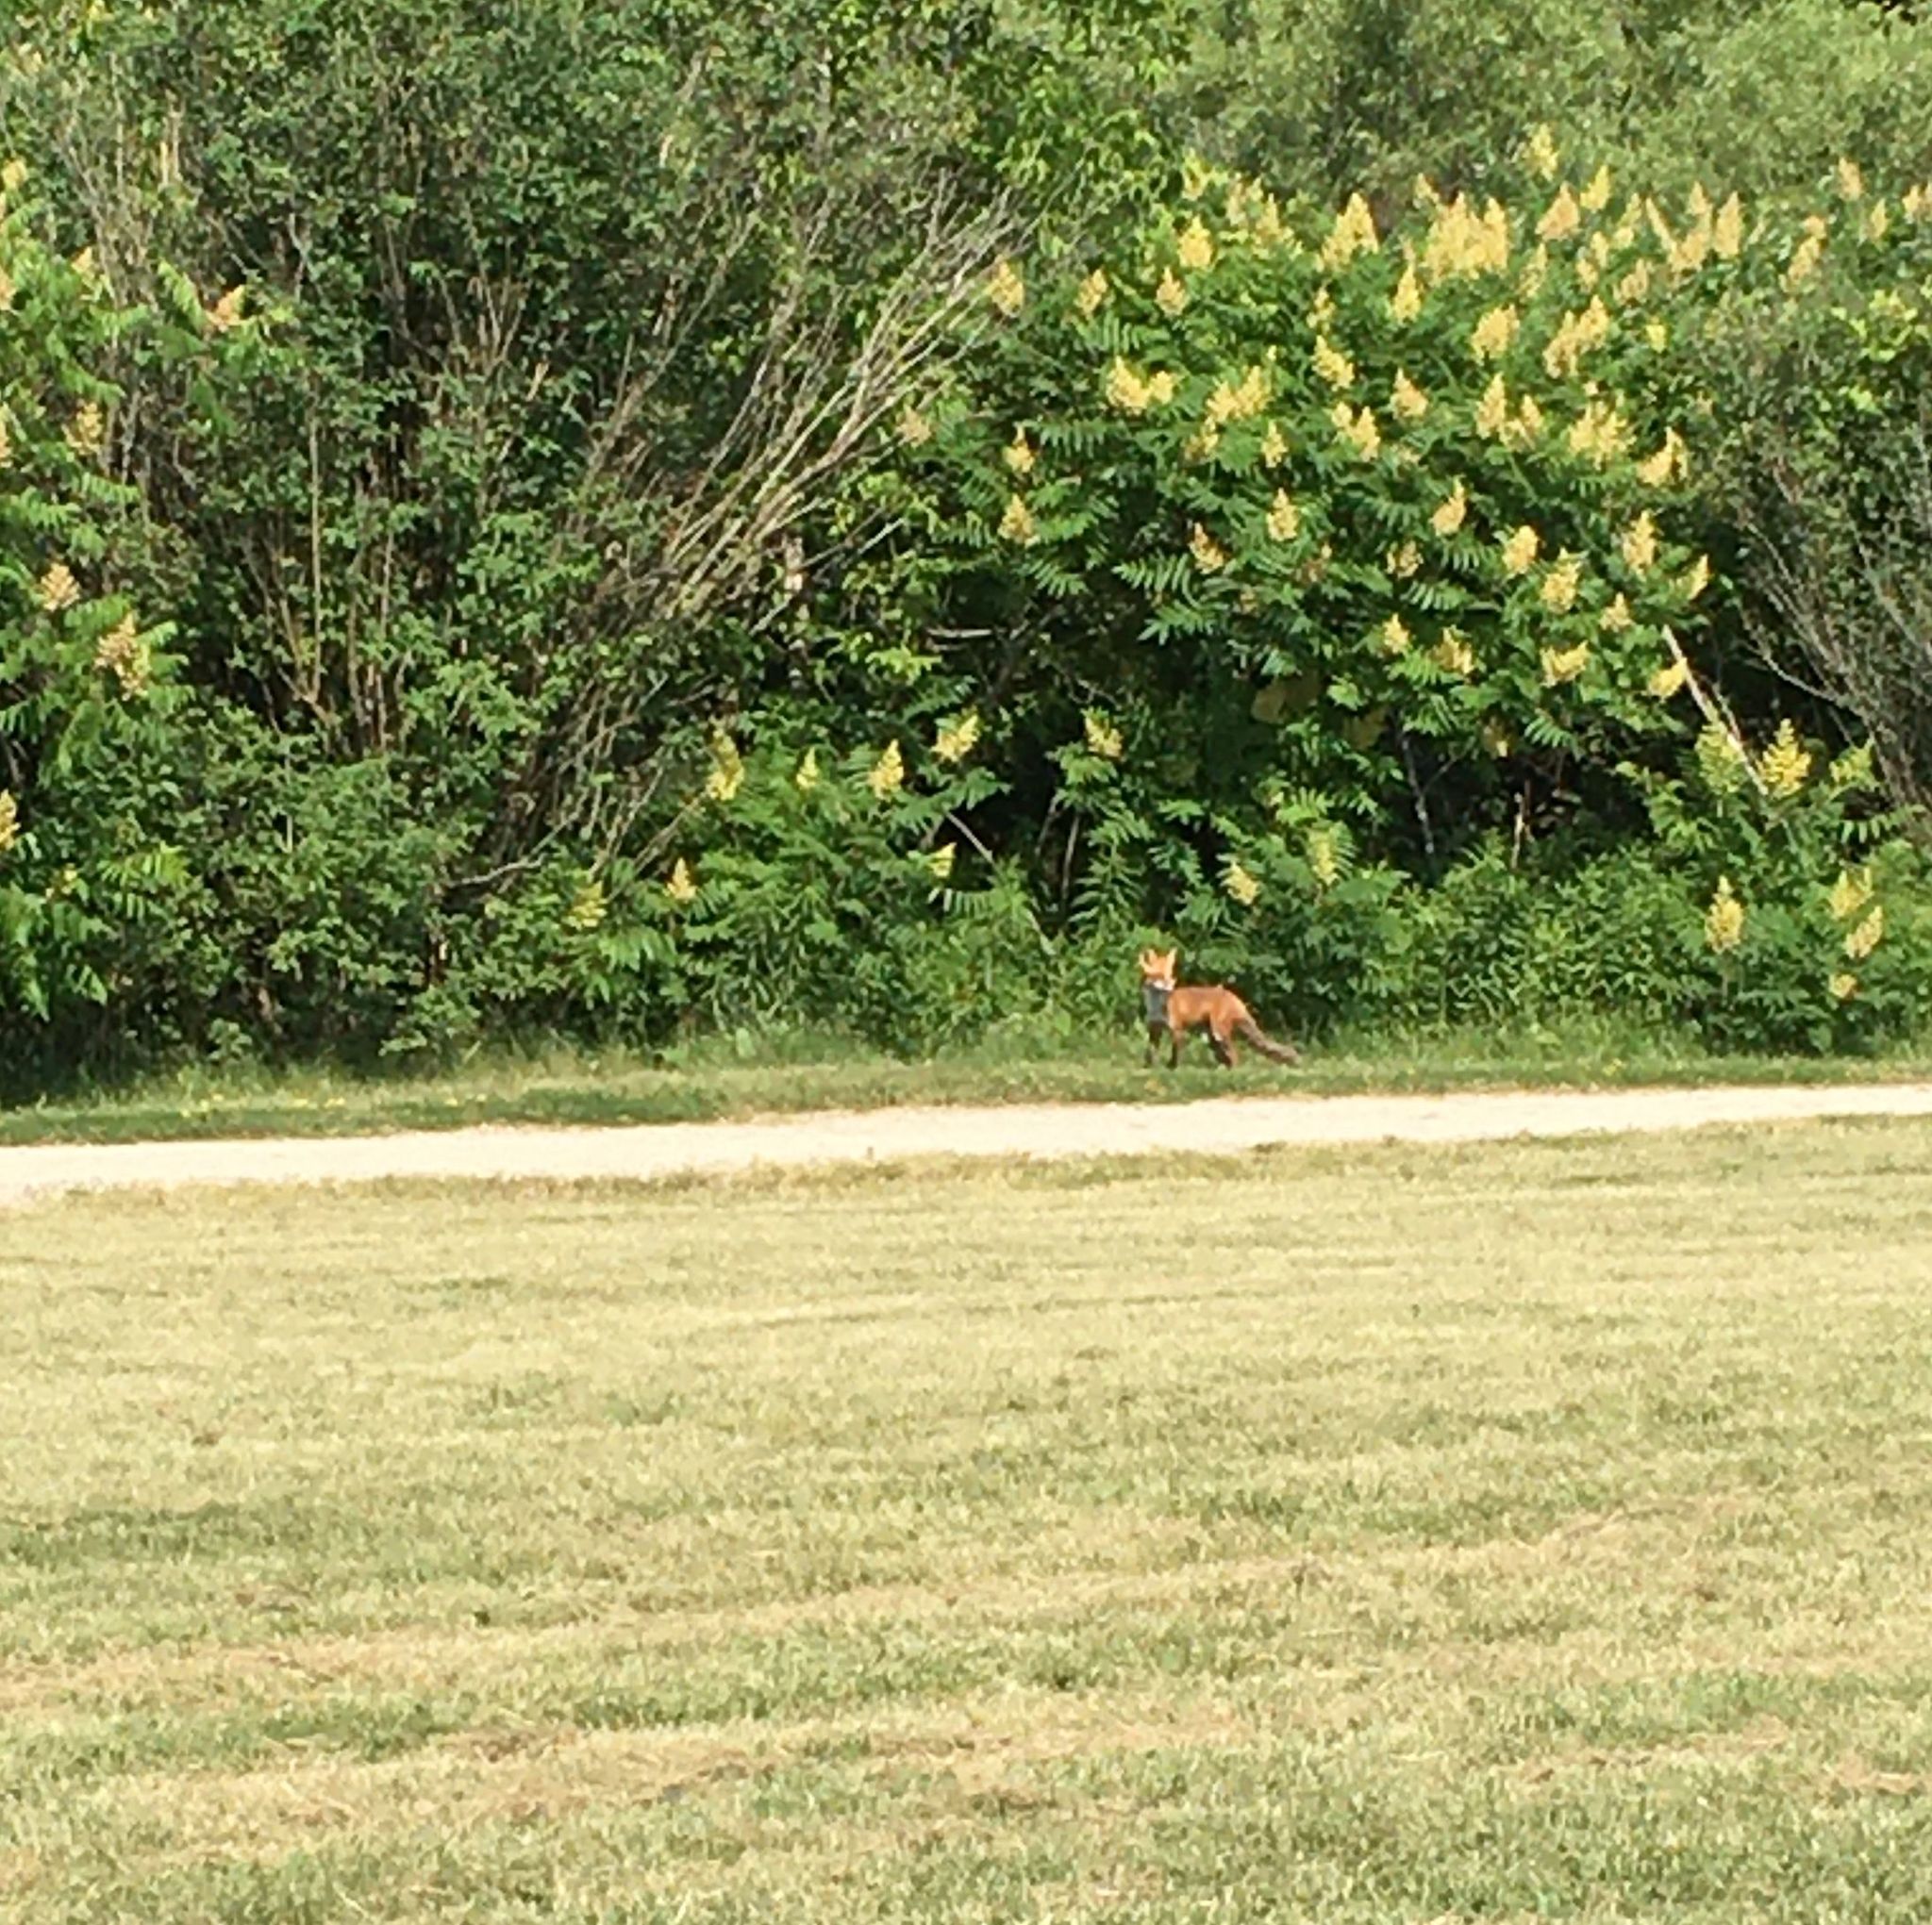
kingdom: Animalia
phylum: Chordata
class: Mammalia
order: Carnivora
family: Canidae
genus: Vulpes
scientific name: Vulpes vulpes
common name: Red fox
